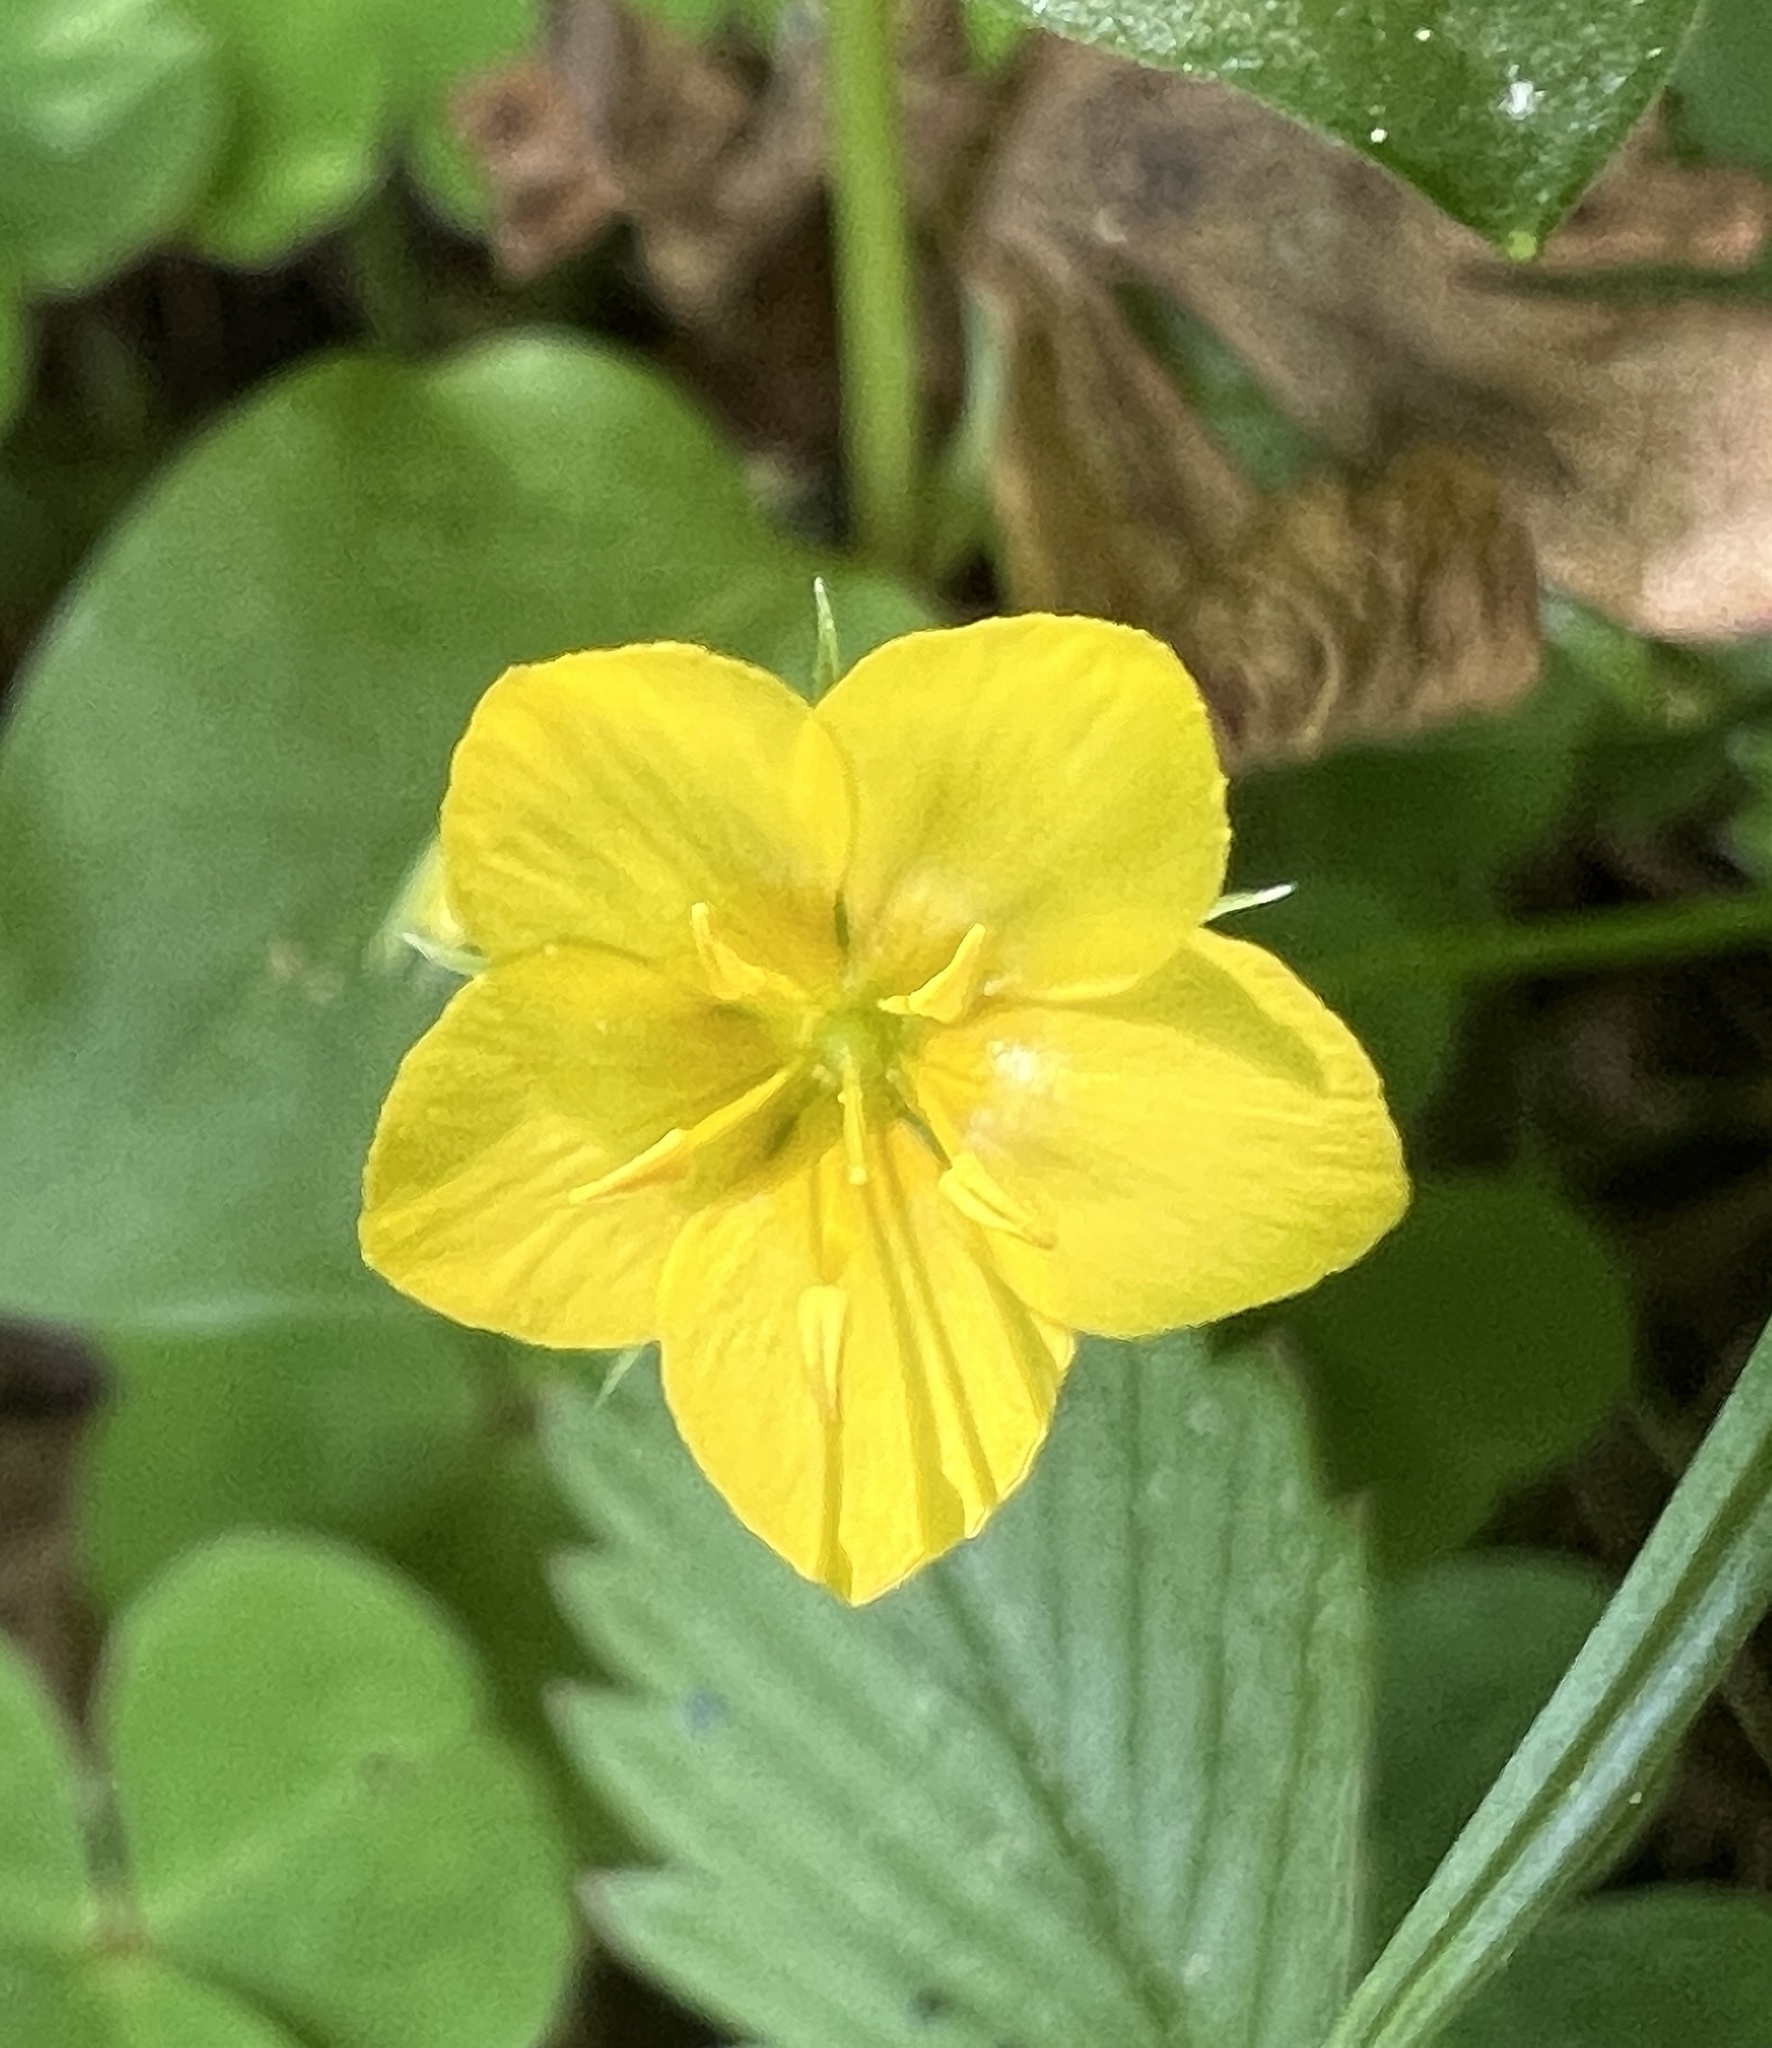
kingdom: Plantae
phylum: Tracheophyta
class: Magnoliopsida
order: Ericales
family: Primulaceae
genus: Lysimachia
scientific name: Lysimachia nemorum
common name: Yellow pimpernel
